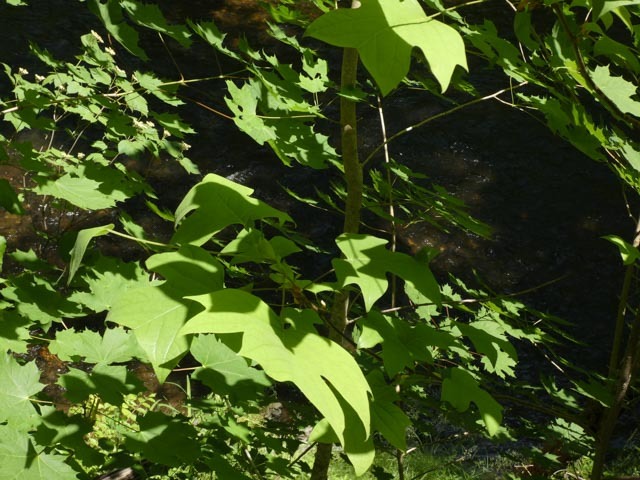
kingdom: Plantae
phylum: Tracheophyta
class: Magnoliopsida
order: Magnoliales
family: Magnoliaceae
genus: Liriodendron
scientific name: Liriodendron tulipifera
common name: Tulip tree
